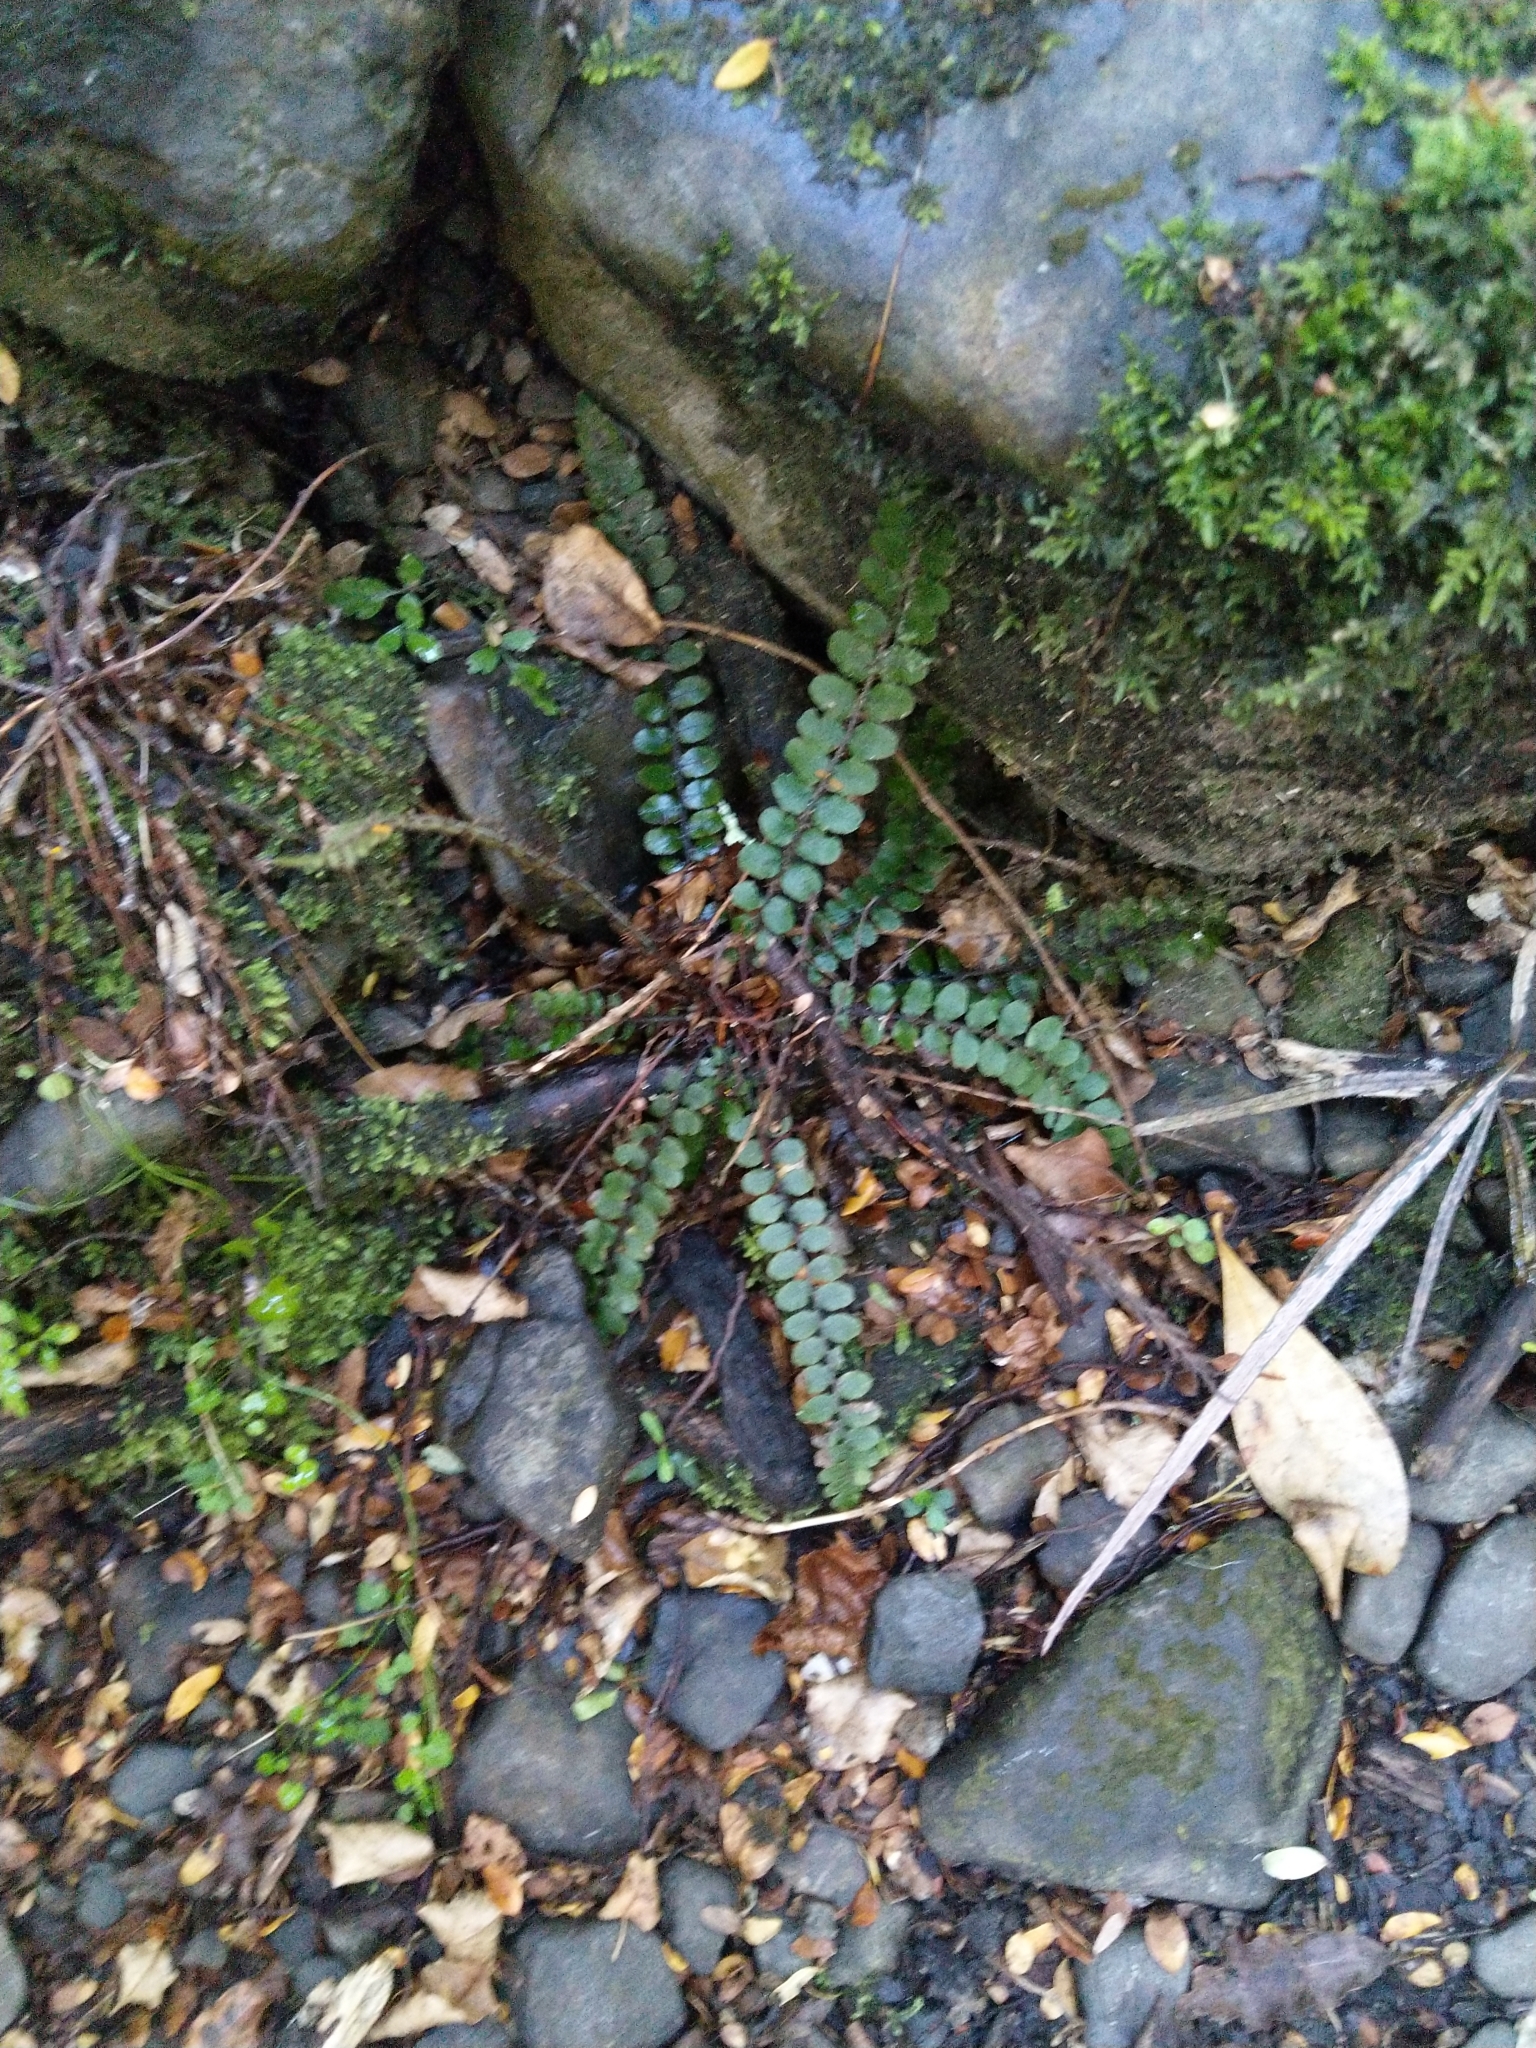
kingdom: Plantae
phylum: Tracheophyta
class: Polypodiopsida
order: Polypodiales
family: Blechnaceae
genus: Cranfillia
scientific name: Cranfillia fluviatilis
